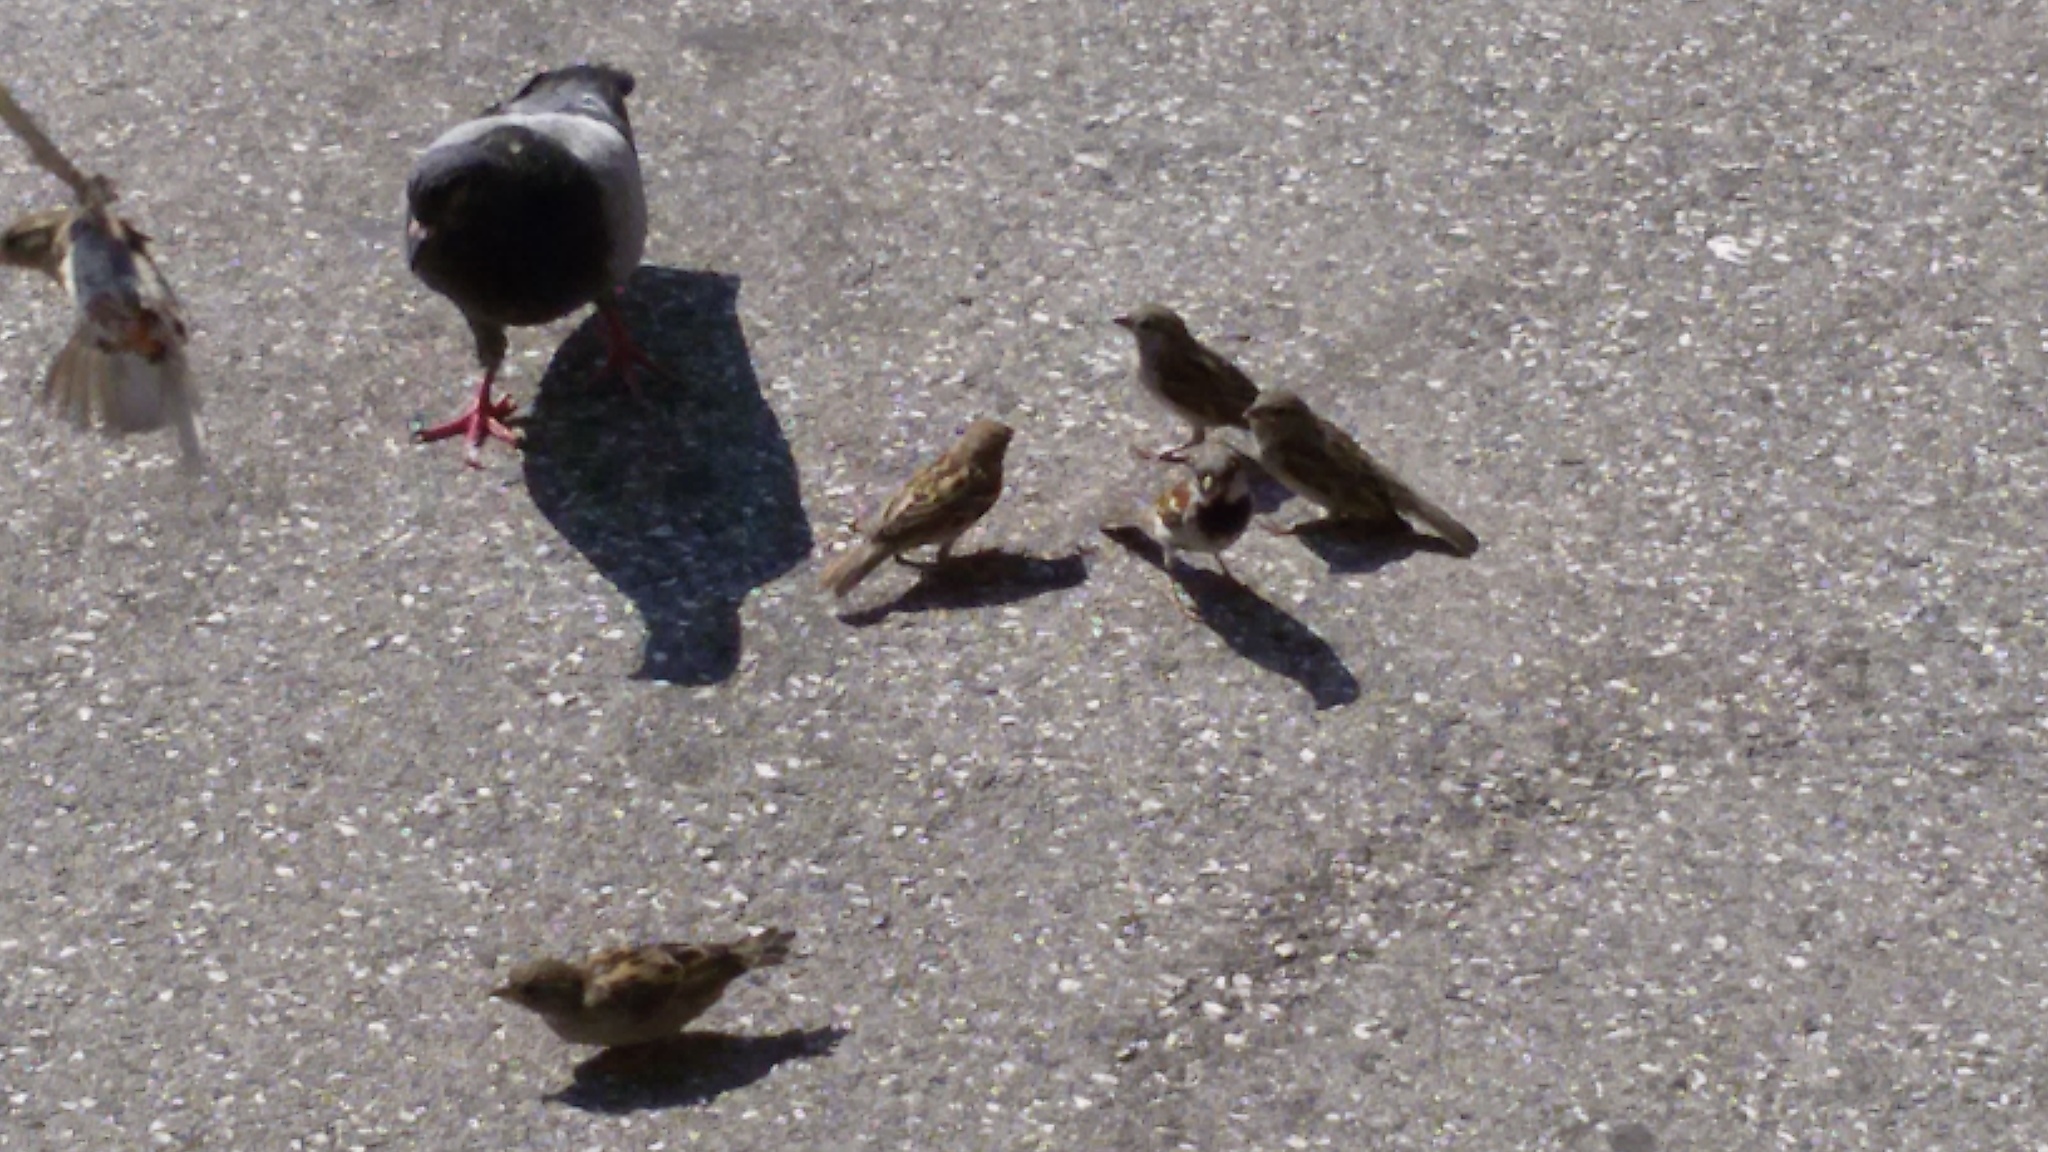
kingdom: Animalia
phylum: Chordata
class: Aves
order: Passeriformes
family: Passeridae
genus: Passer
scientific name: Passer domesticus
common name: House sparrow
